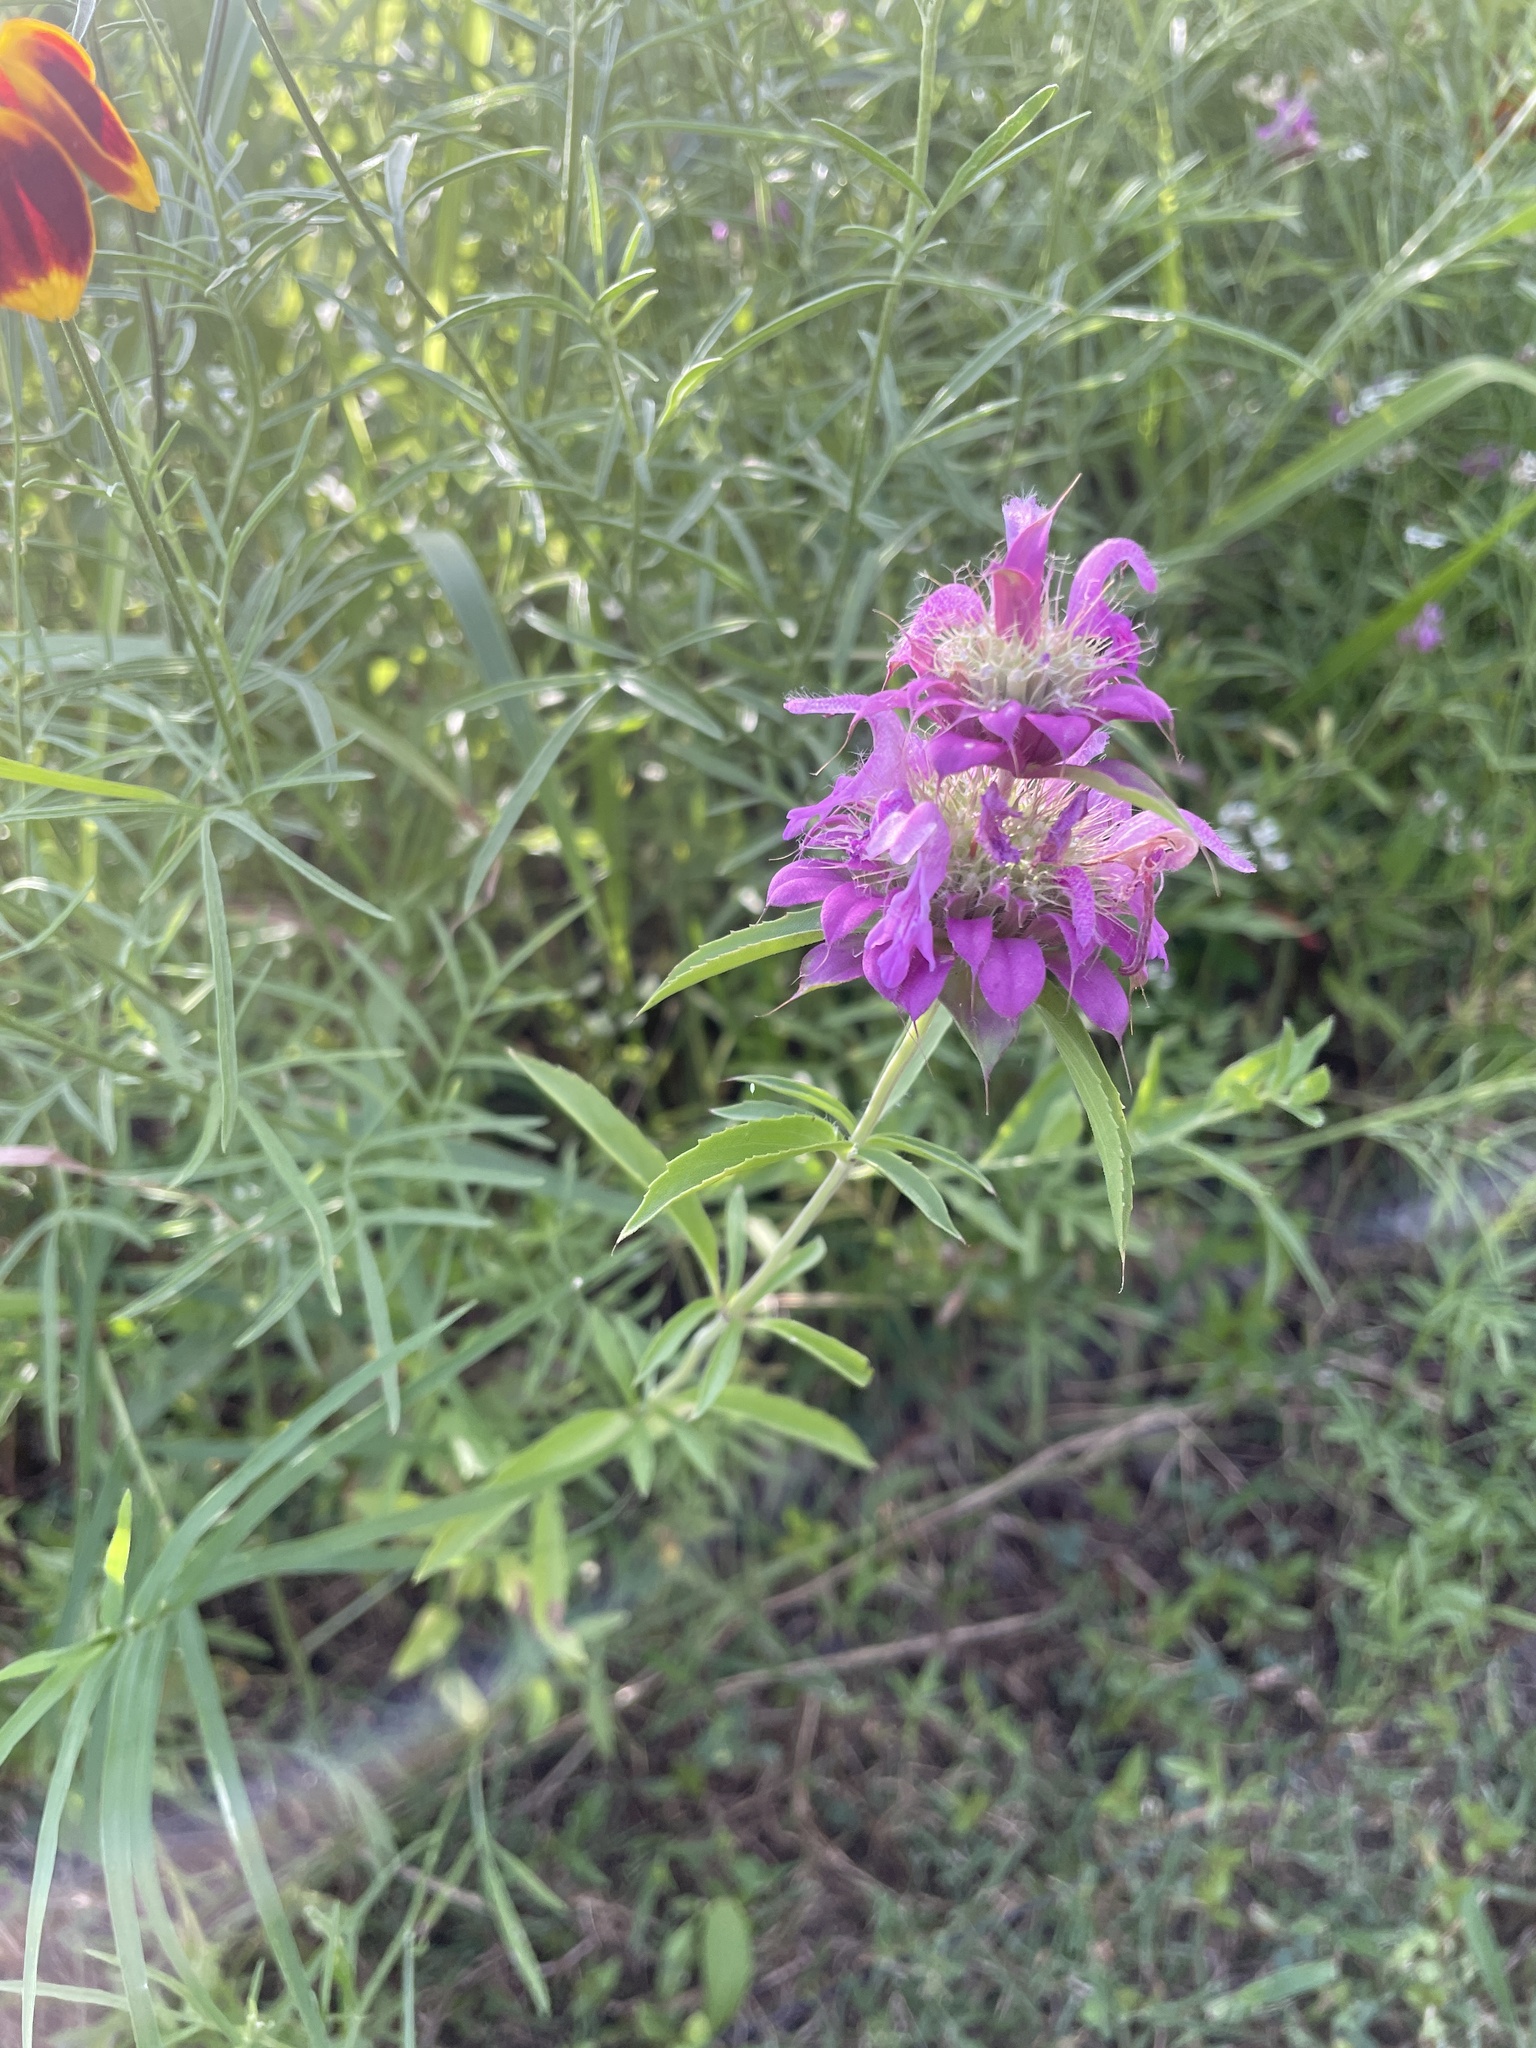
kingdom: Plantae
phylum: Tracheophyta
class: Magnoliopsida
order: Lamiales
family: Lamiaceae
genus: Monarda
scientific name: Monarda citriodora
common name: Lemon beebalm
